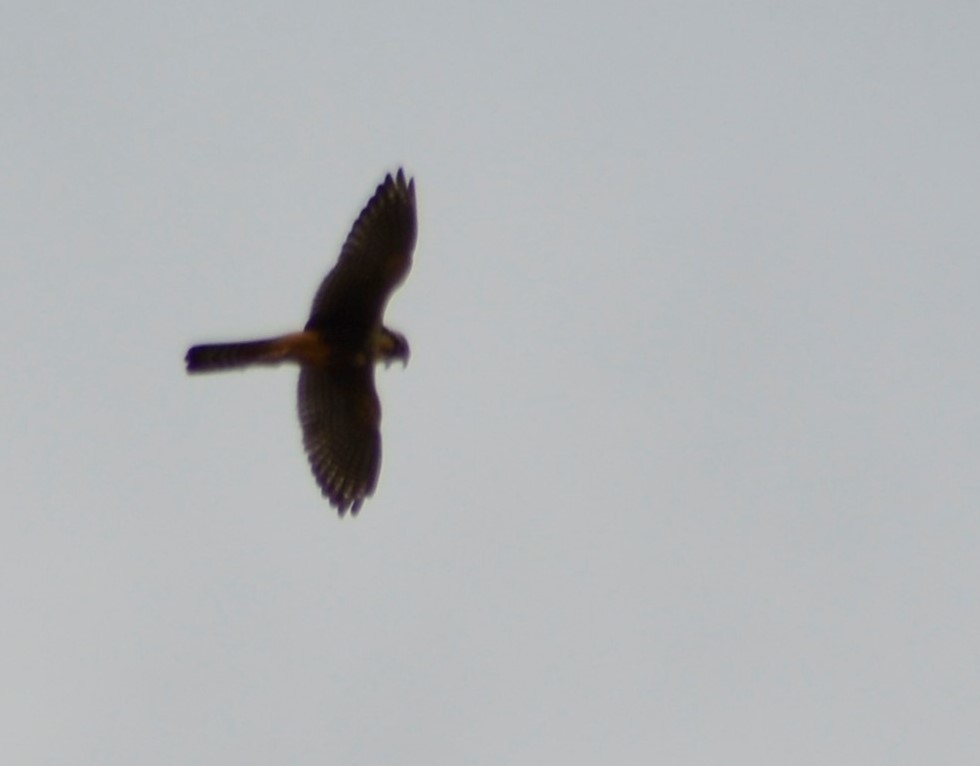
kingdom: Animalia
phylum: Chordata
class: Aves
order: Falconiformes
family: Falconidae
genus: Falco
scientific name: Falco femoralis
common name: Aplomado falcon
